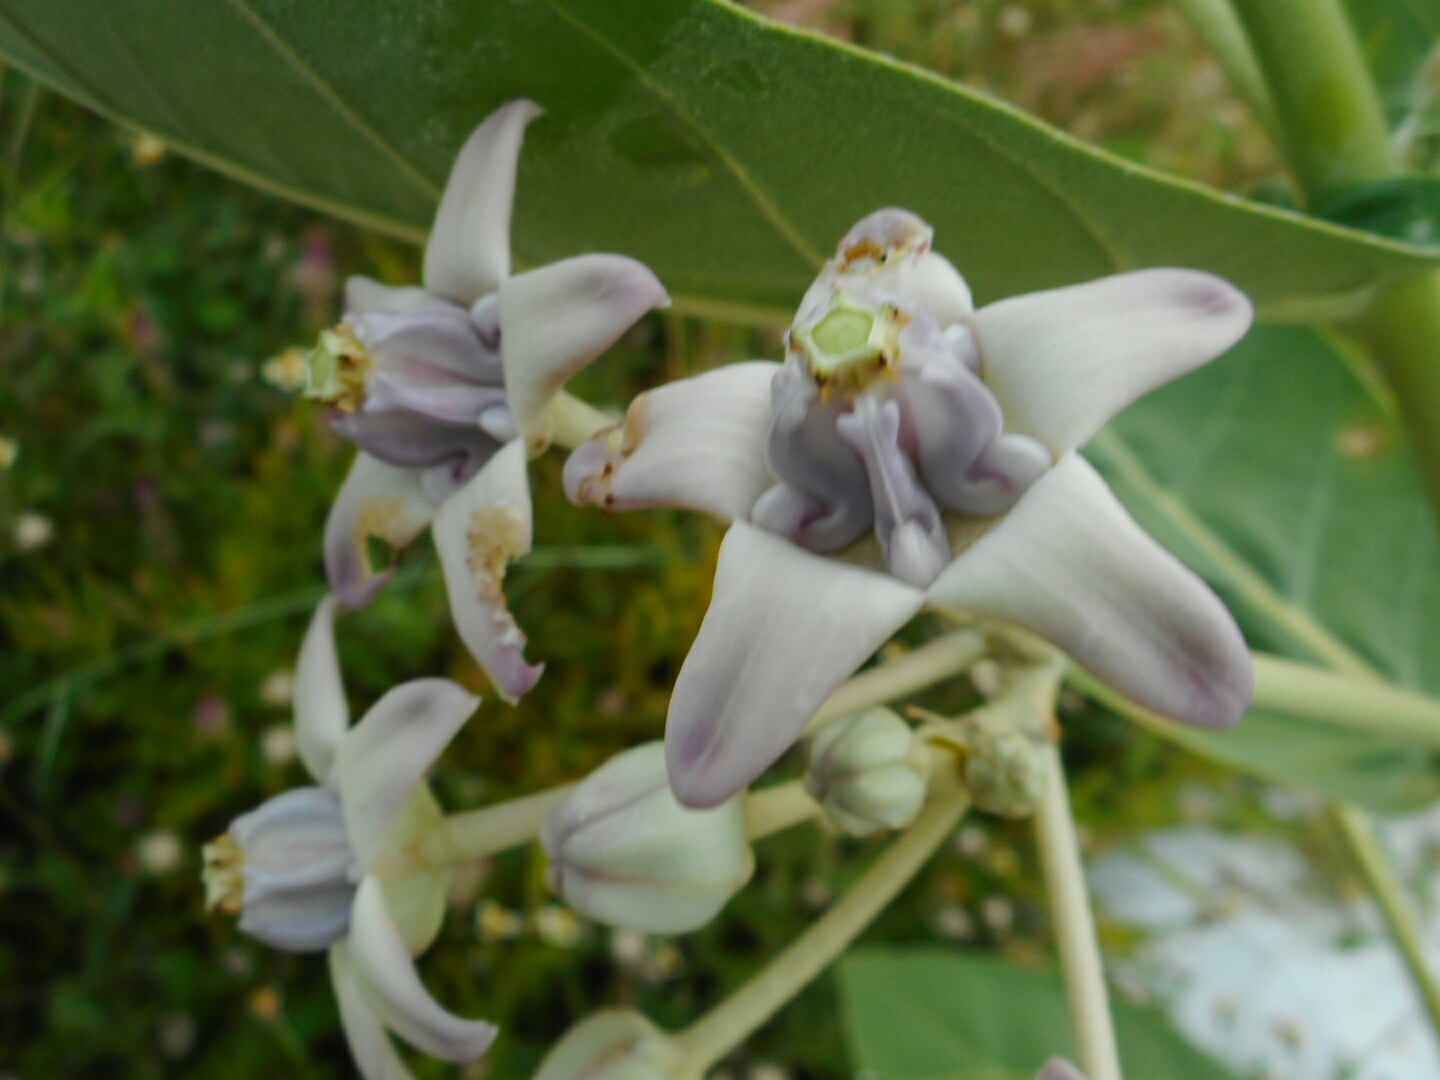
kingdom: Plantae
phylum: Tracheophyta
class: Magnoliopsida
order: Gentianales
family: Apocynaceae
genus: Calotropis
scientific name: Calotropis gigantea
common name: Crown flower
